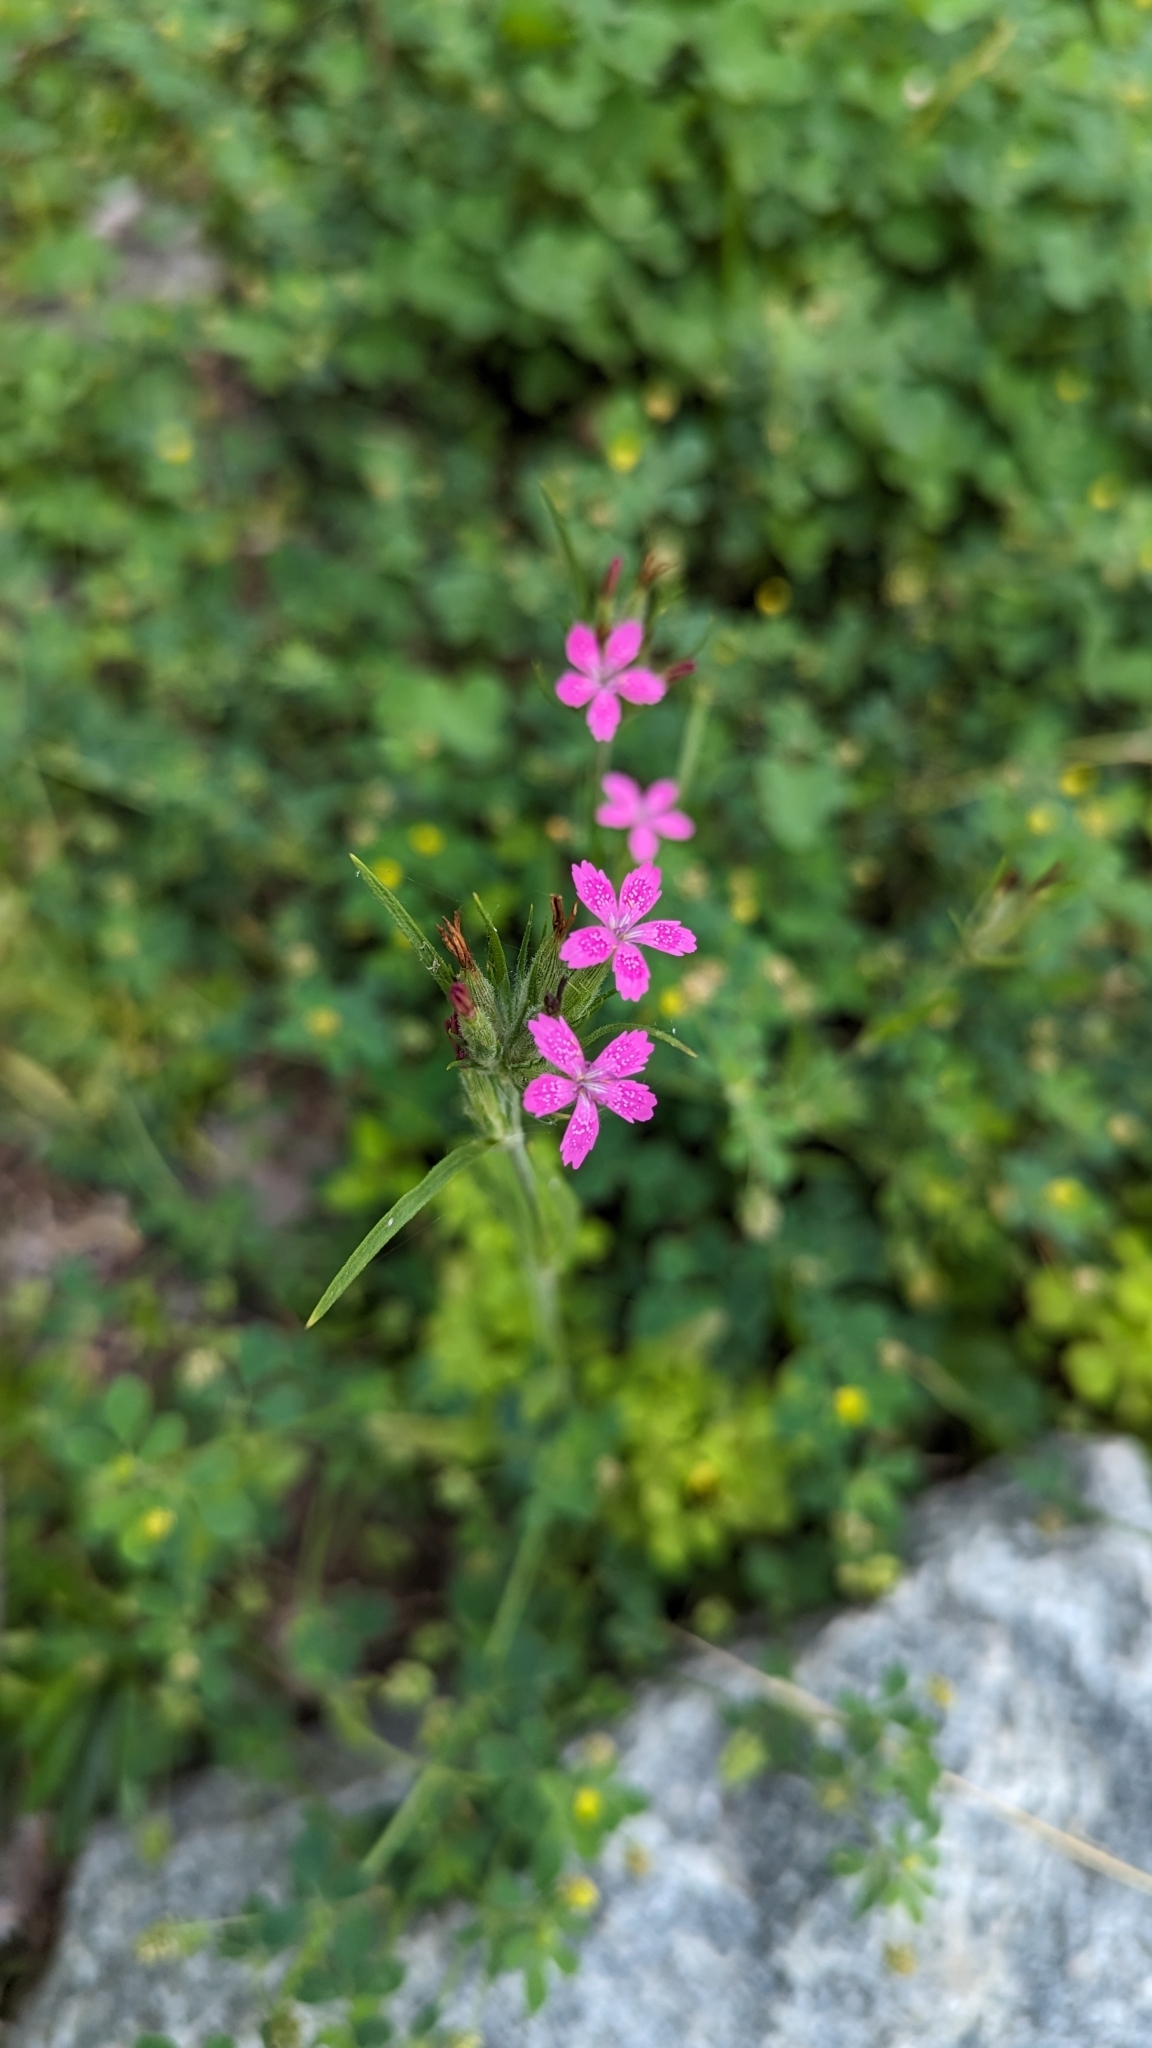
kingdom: Plantae
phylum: Tracheophyta
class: Magnoliopsida
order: Caryophyllales
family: Caryophyllaceae
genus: Dianthus
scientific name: Dianthus armeria
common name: Deptford pink
